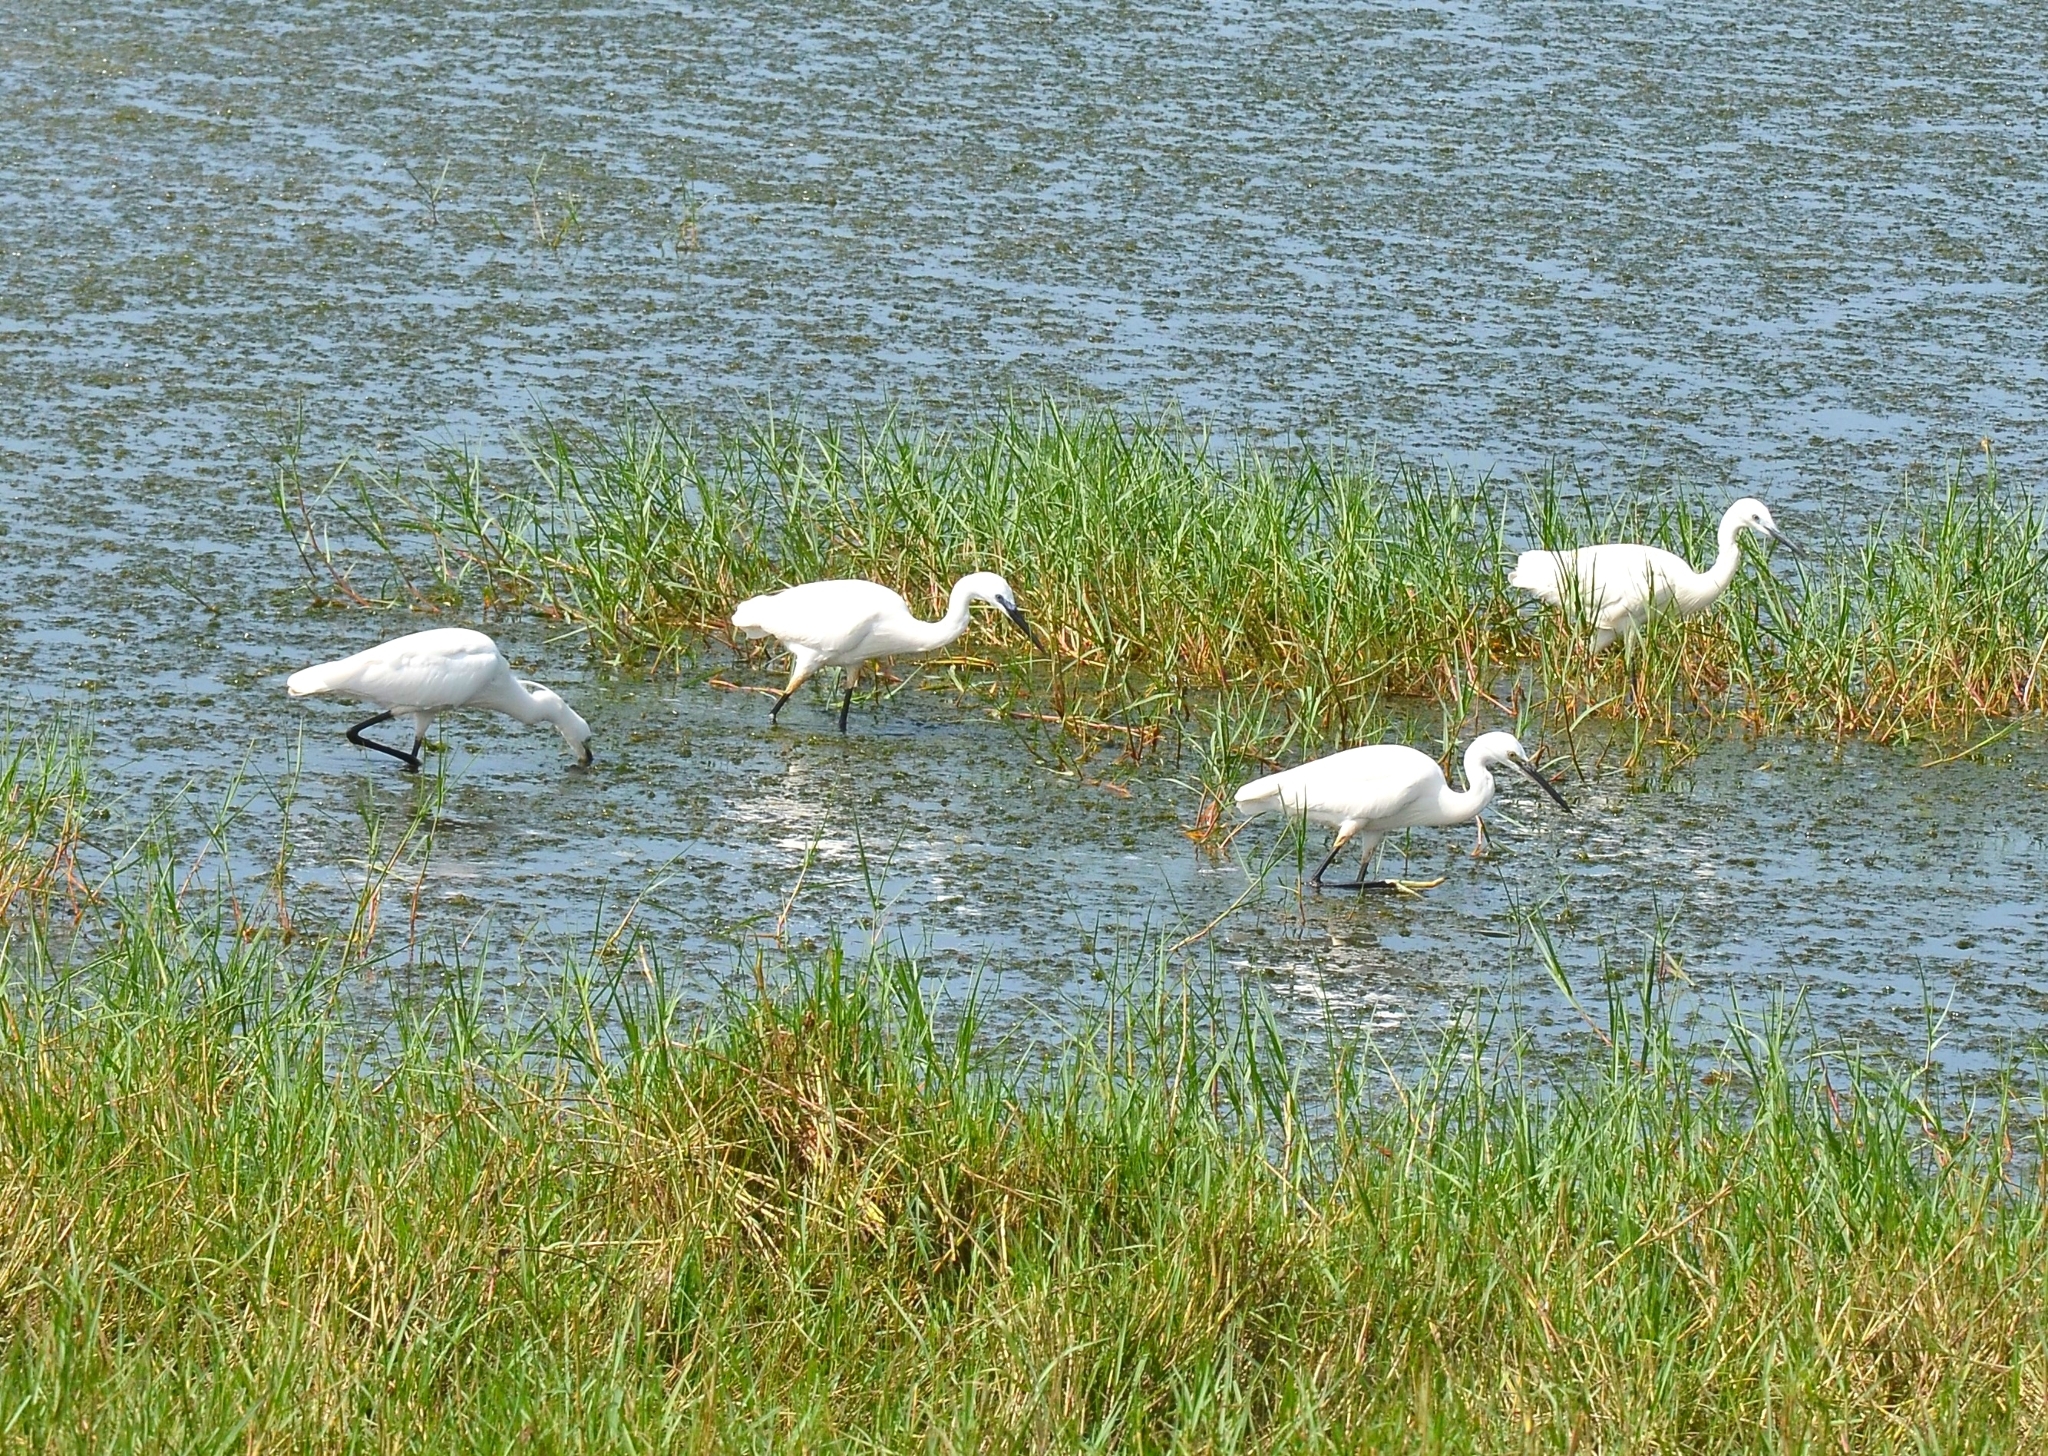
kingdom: Animalia
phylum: Chordata
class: Aves
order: Pelecaniformes
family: Ardeidae
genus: Egretta
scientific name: Egretta garzetta
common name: Little egret
